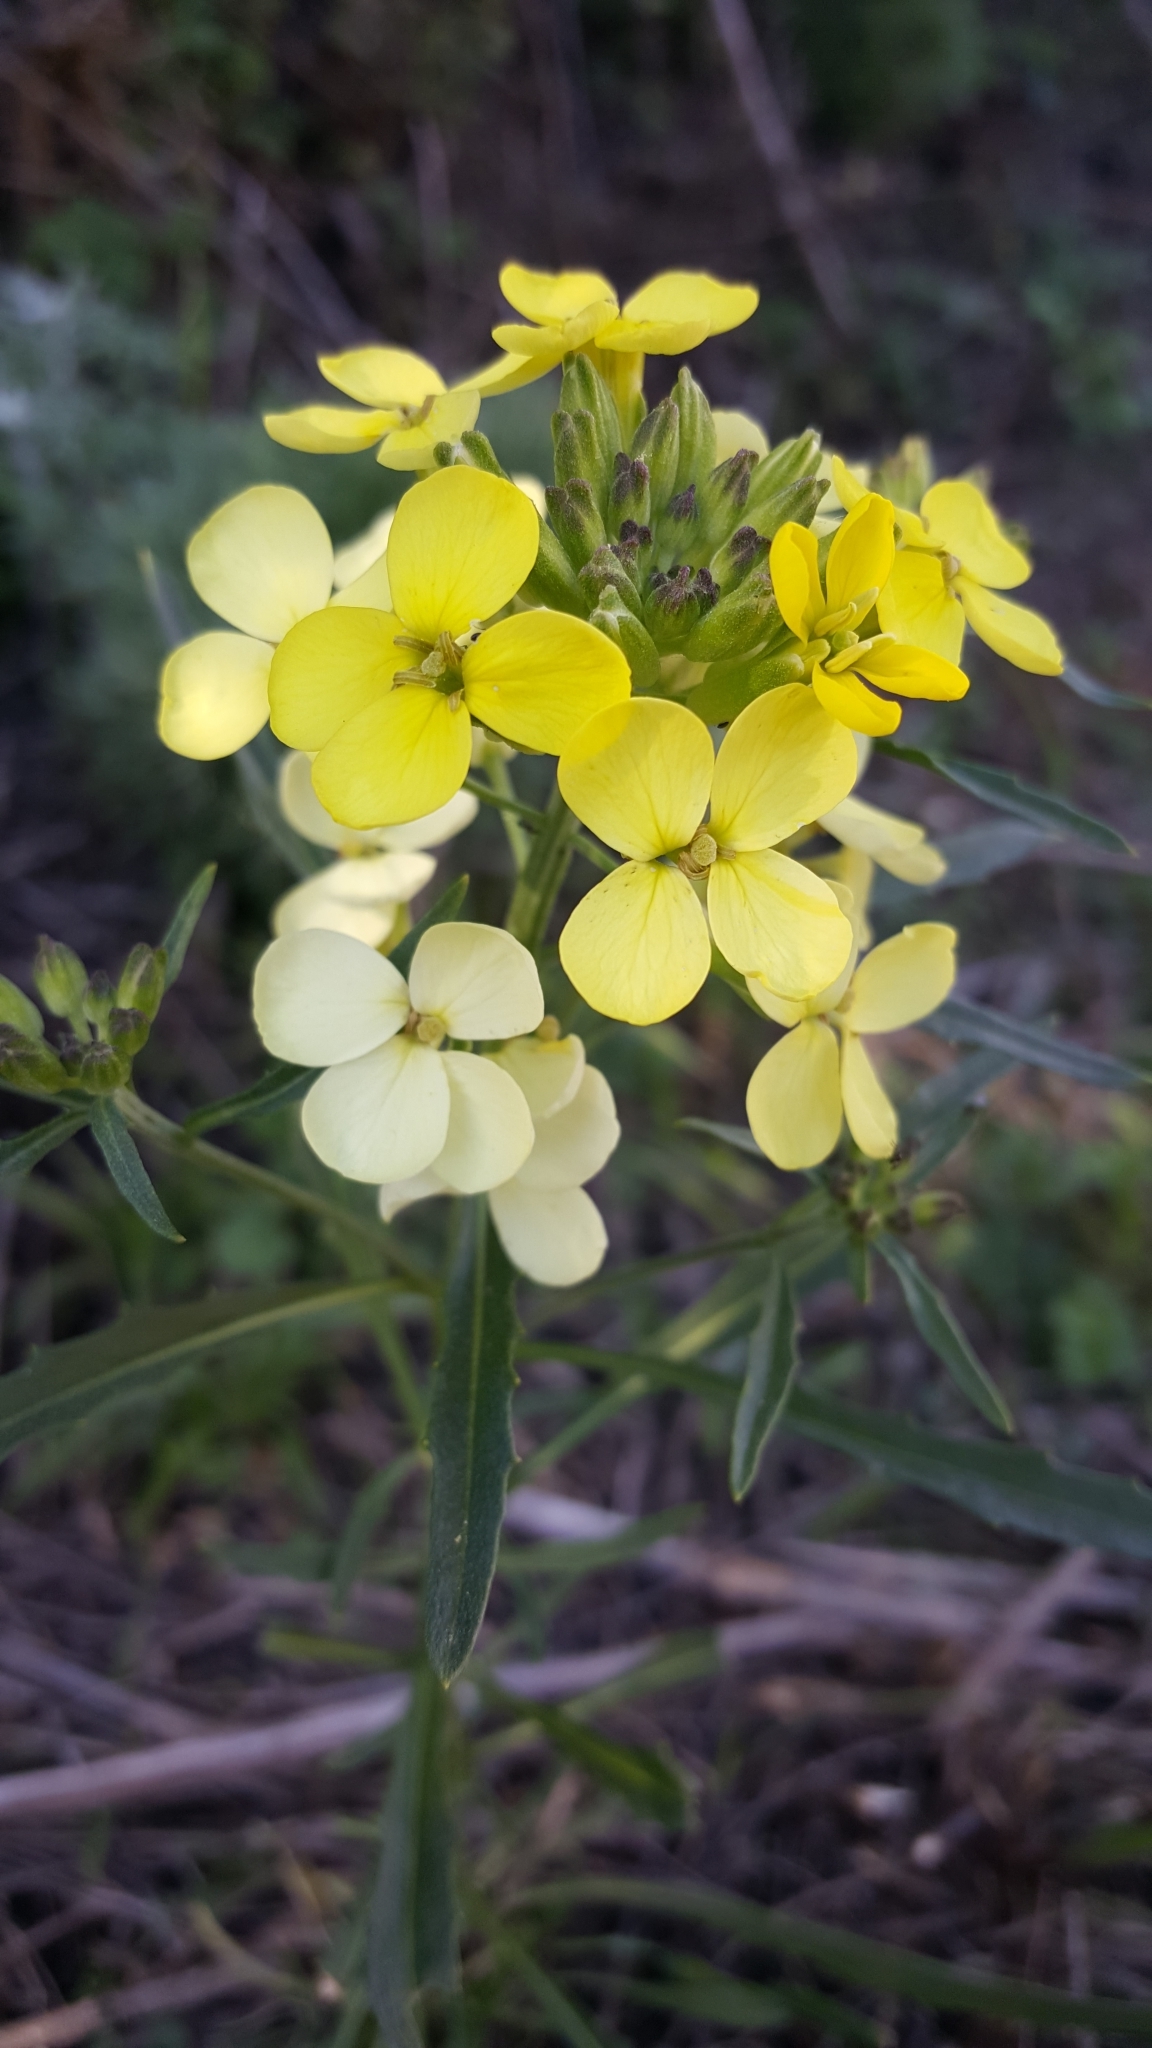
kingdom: Plantae
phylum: Tracheophyta
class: Magnoliopsida
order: Brassicales
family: Brassicaceae
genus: Erysimum
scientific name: Erysimum franciscanum
